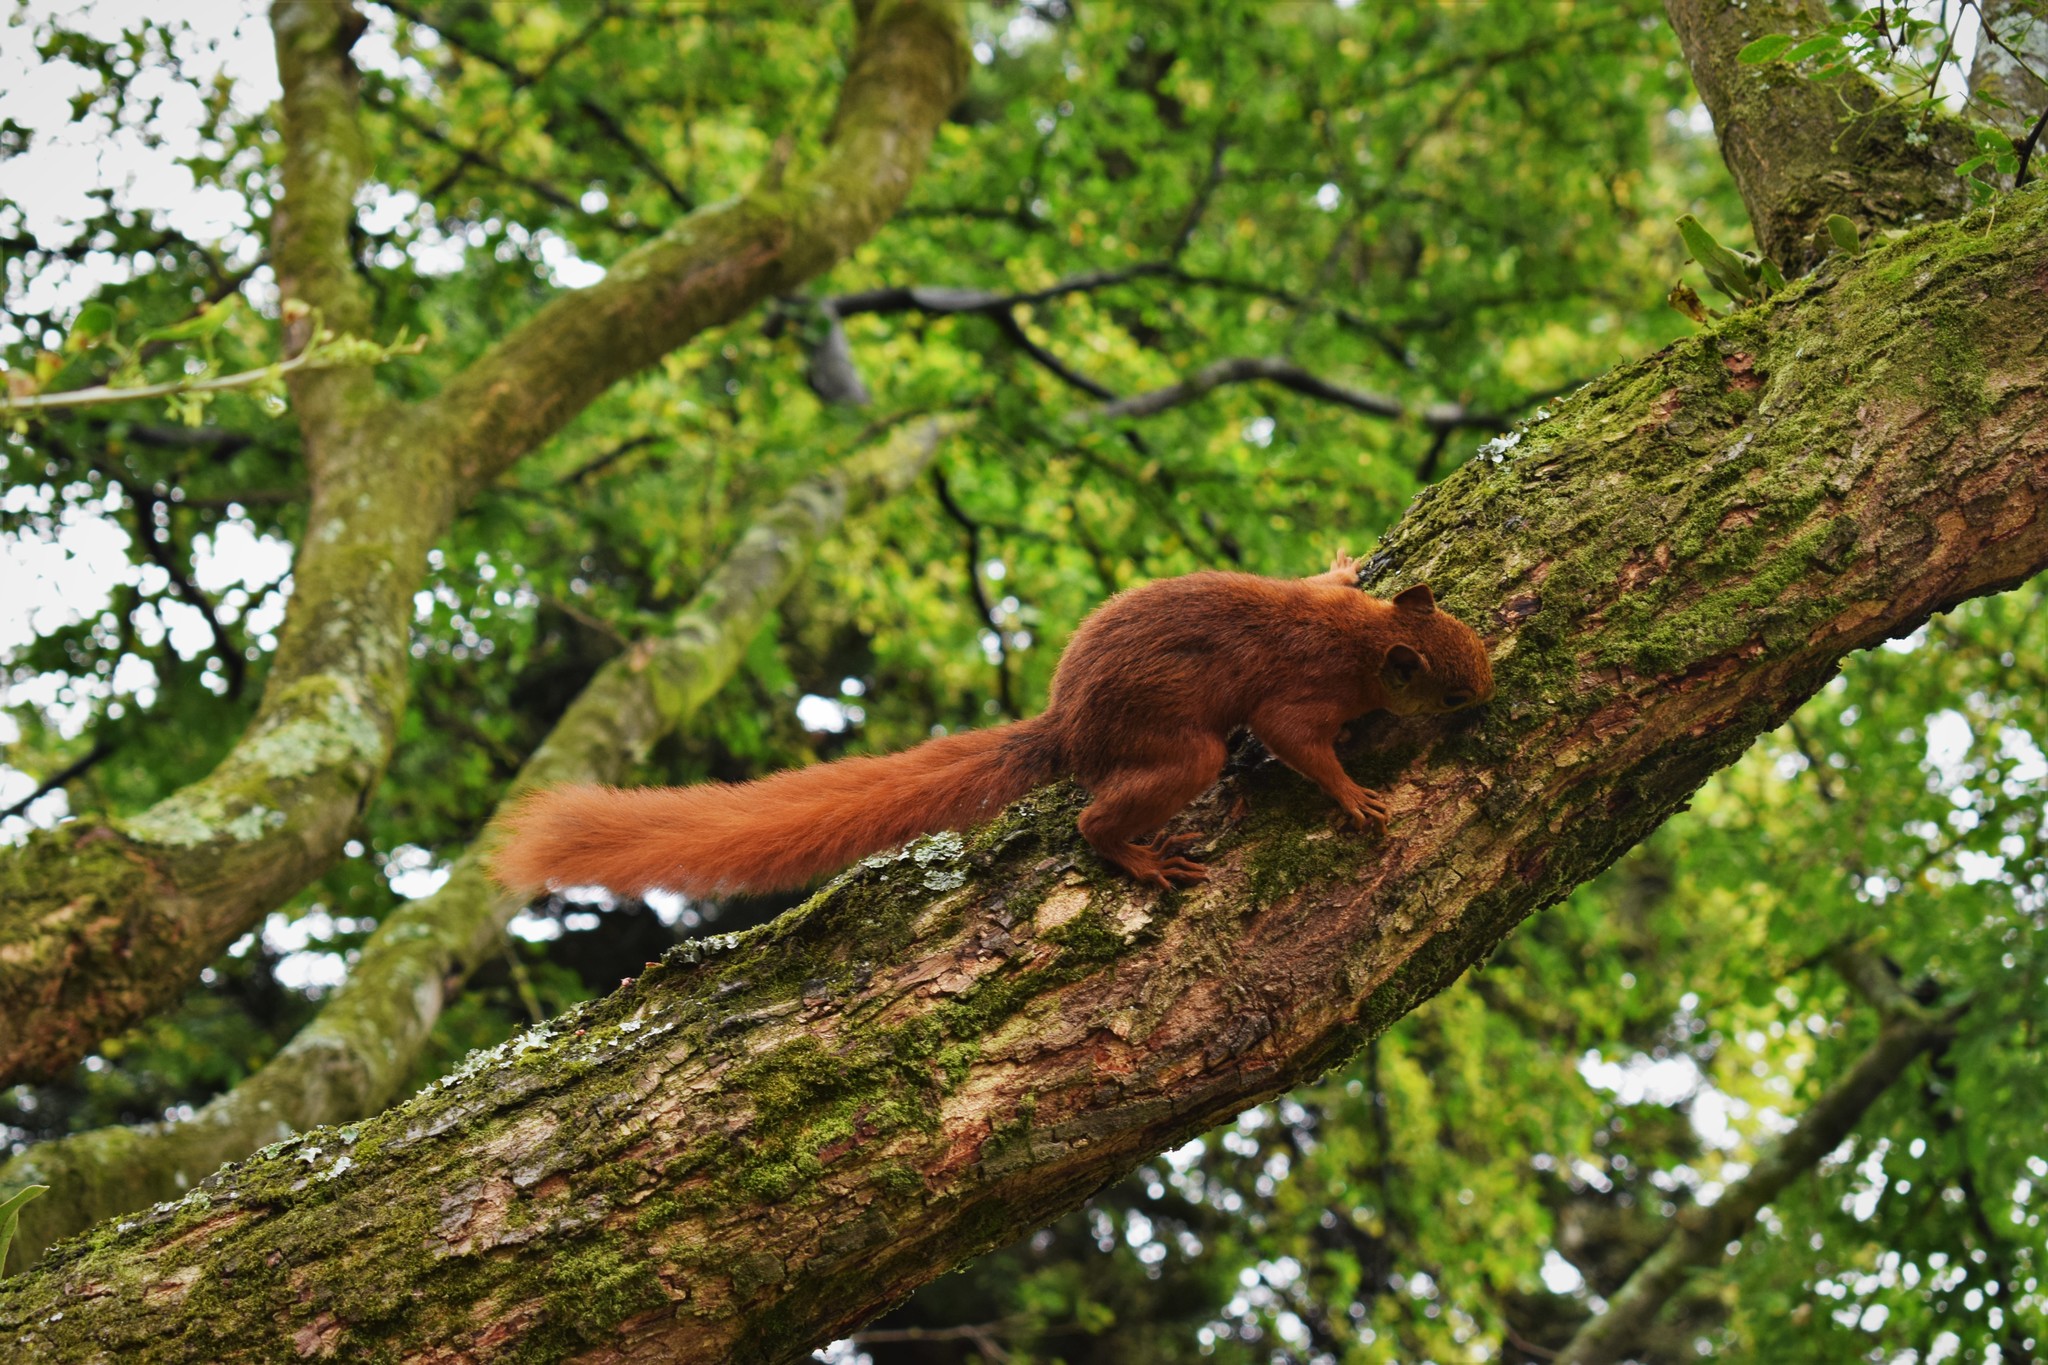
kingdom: Animalia
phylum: Chordata
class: Mammalia
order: Rodentia
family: Sciuridae
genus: Sciurus
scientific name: Sciurus granatensis
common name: Red-tailed squirrel
